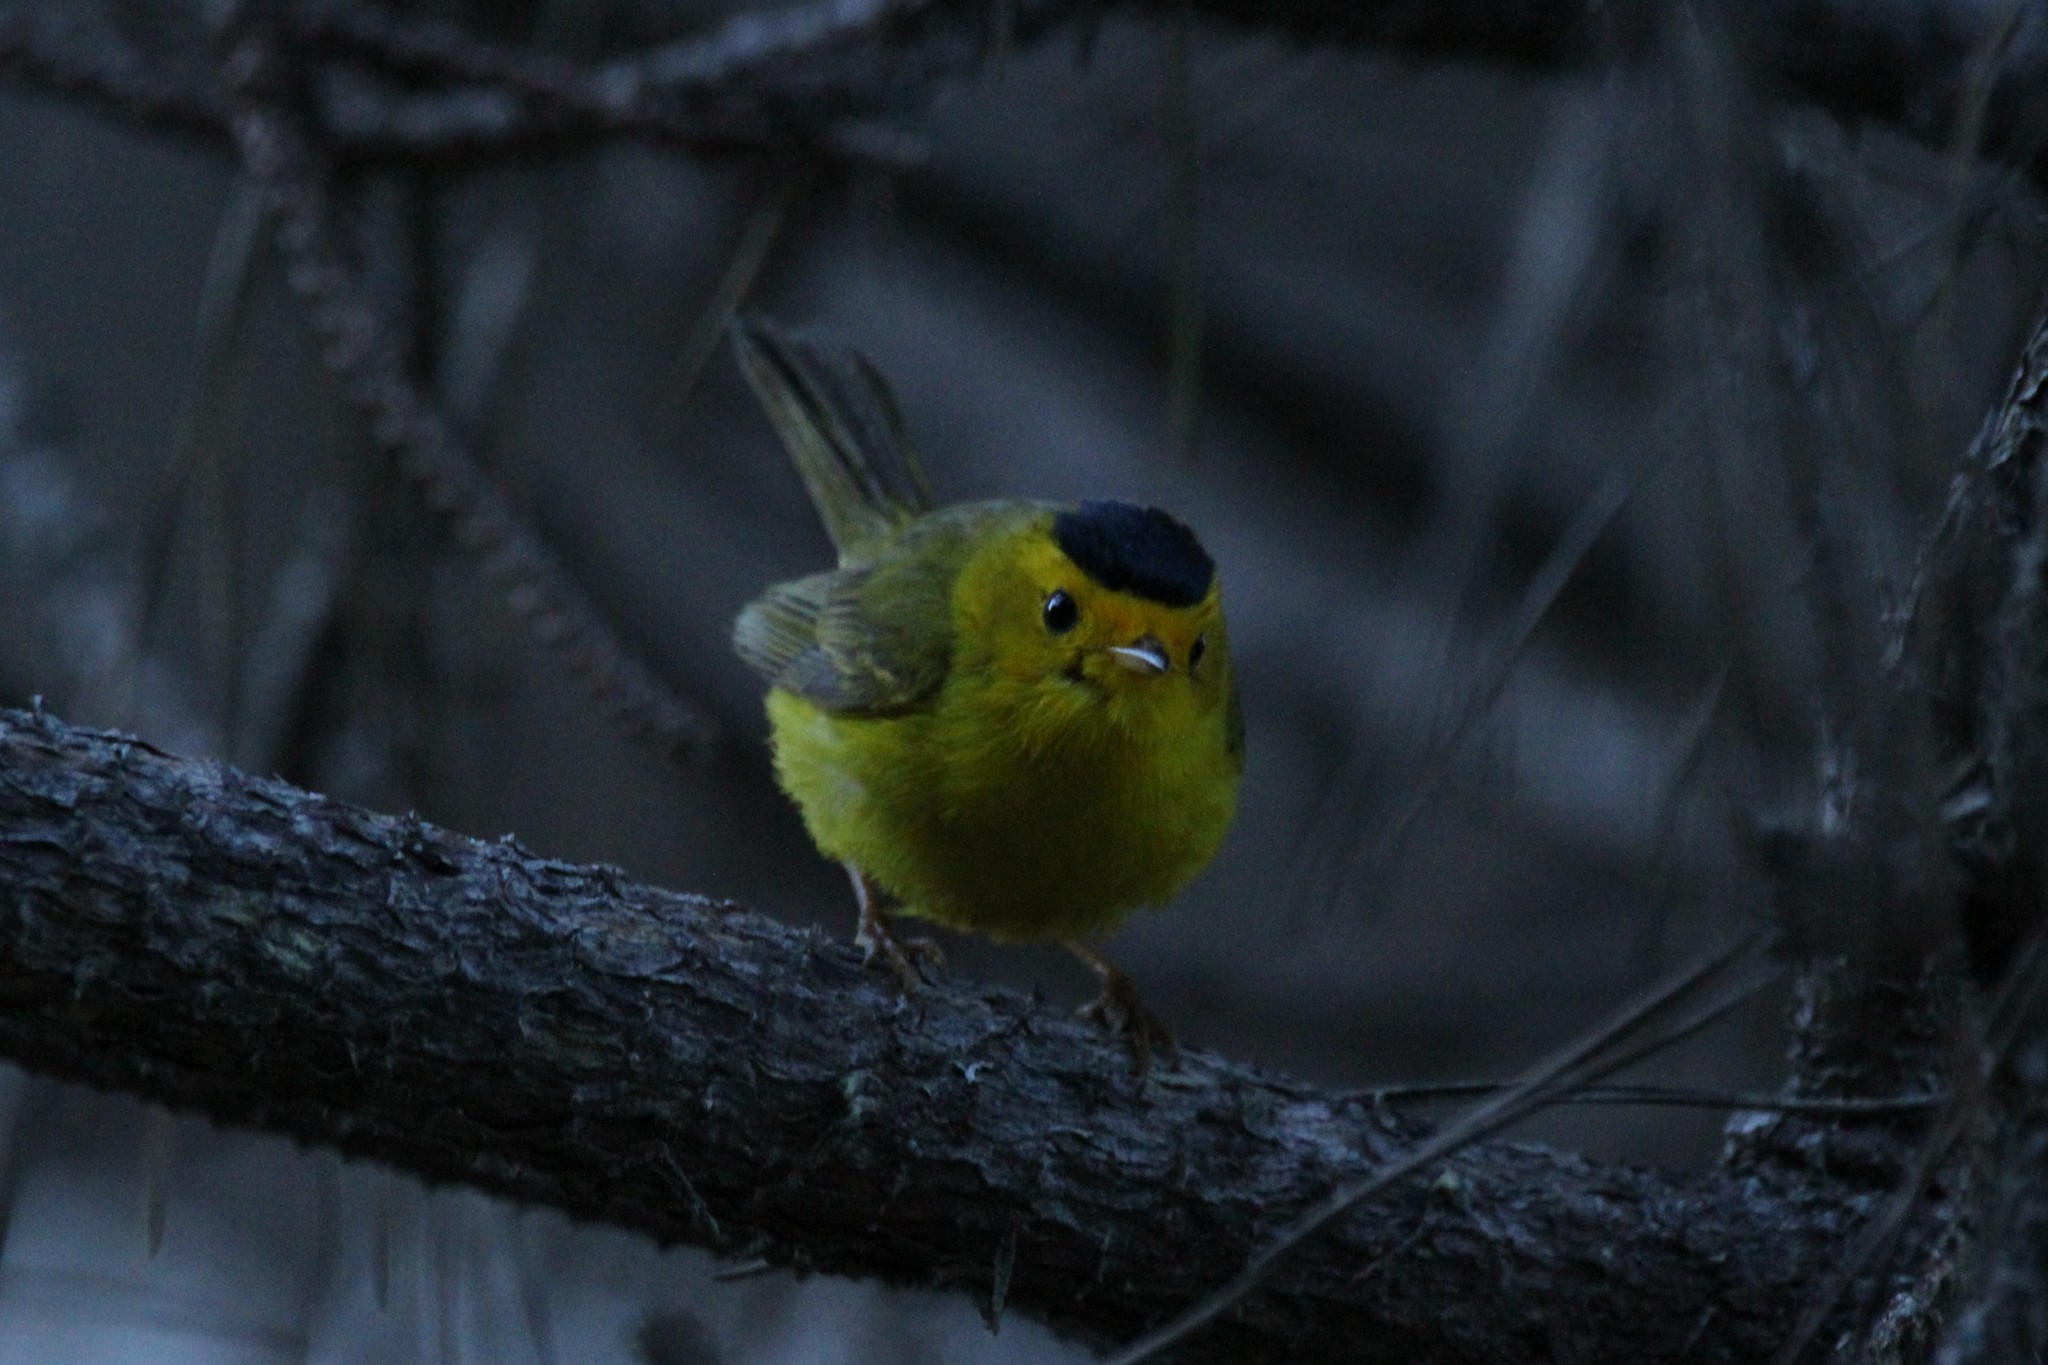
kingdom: Animalia
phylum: Chordata
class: Aves
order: Passeriformes
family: Parulidae
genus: Cardellina
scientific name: Cardellina pusilla
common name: Wilson's warbler
